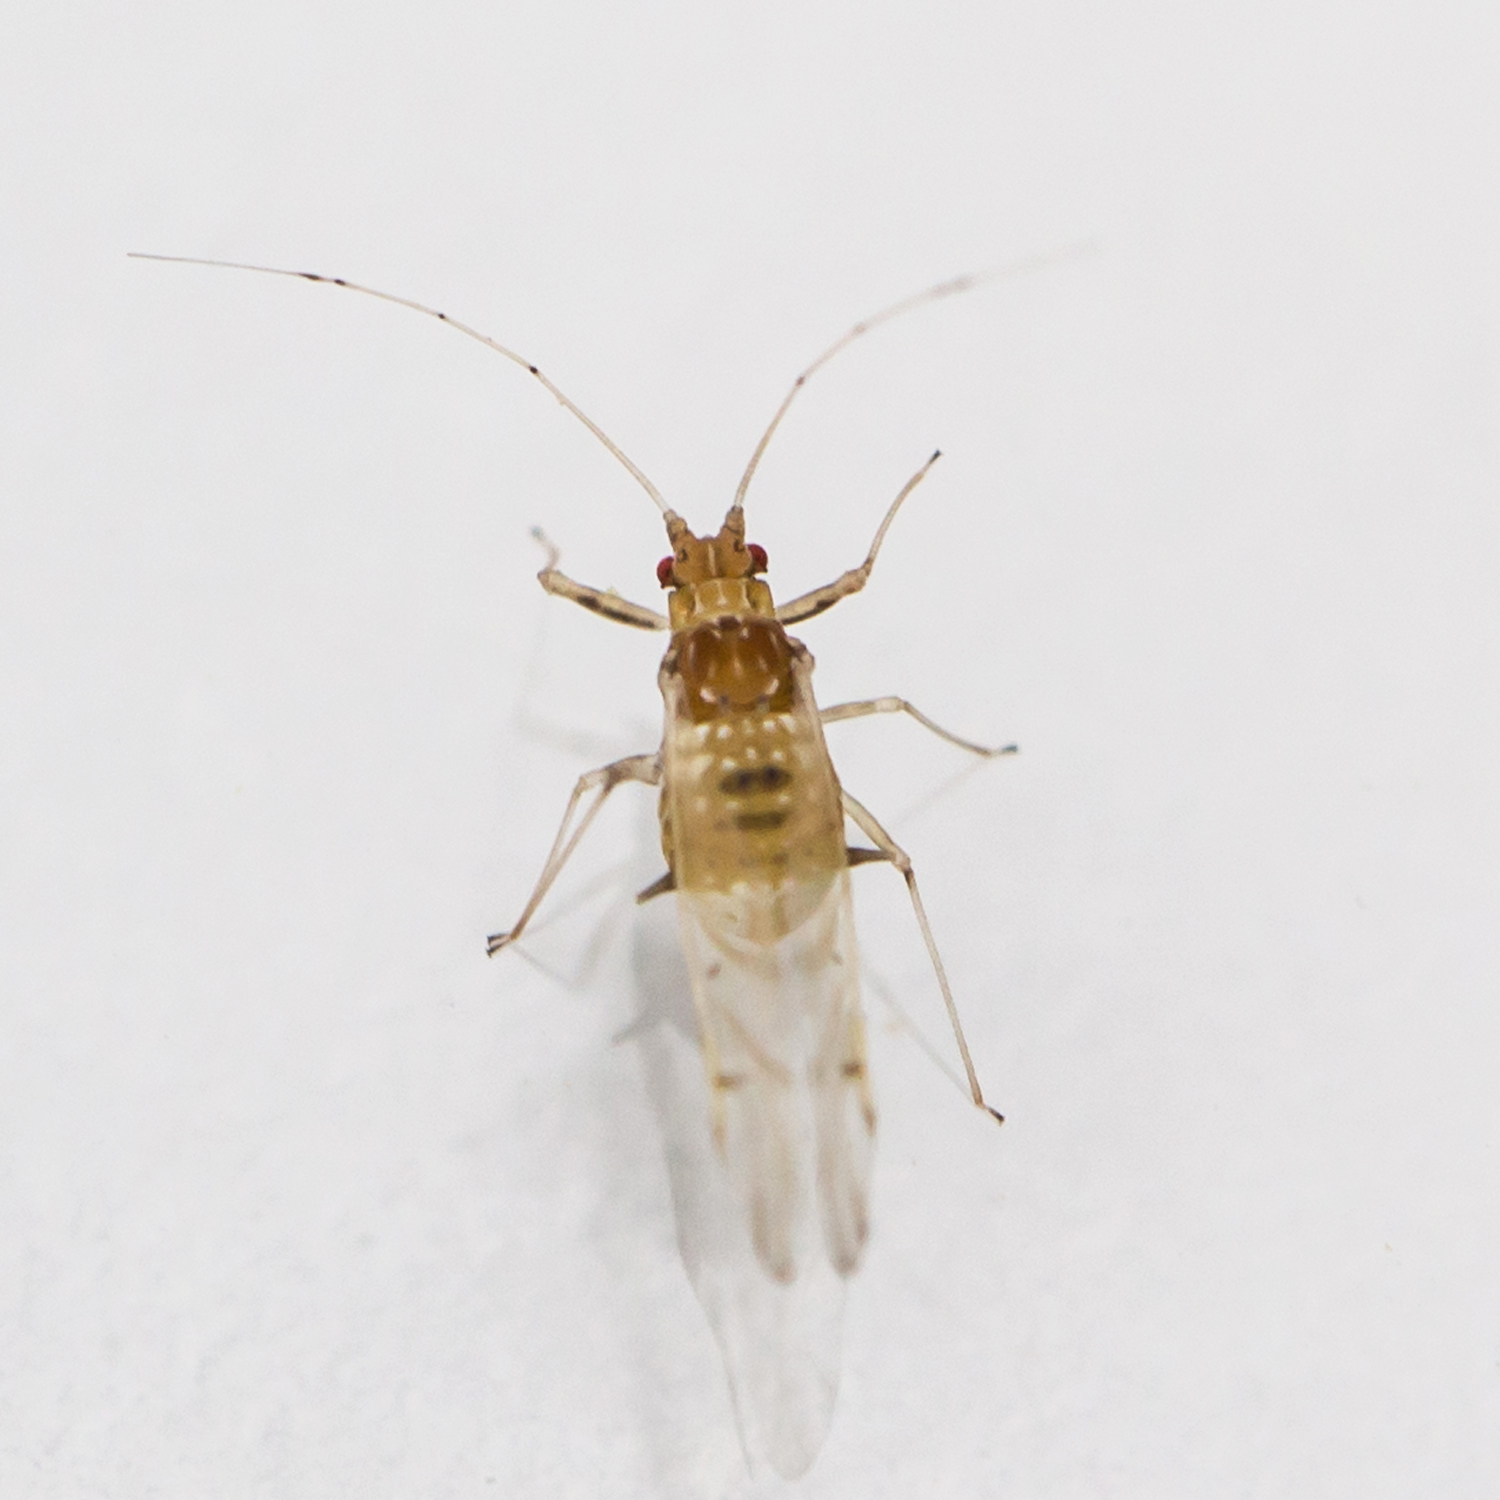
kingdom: Animalia
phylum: Arthropoda
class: Insecta
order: Hemiptera
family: Aphididae
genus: Drepanaphis
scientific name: Drepanaphis acerifoliae
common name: Painted maple aphid
